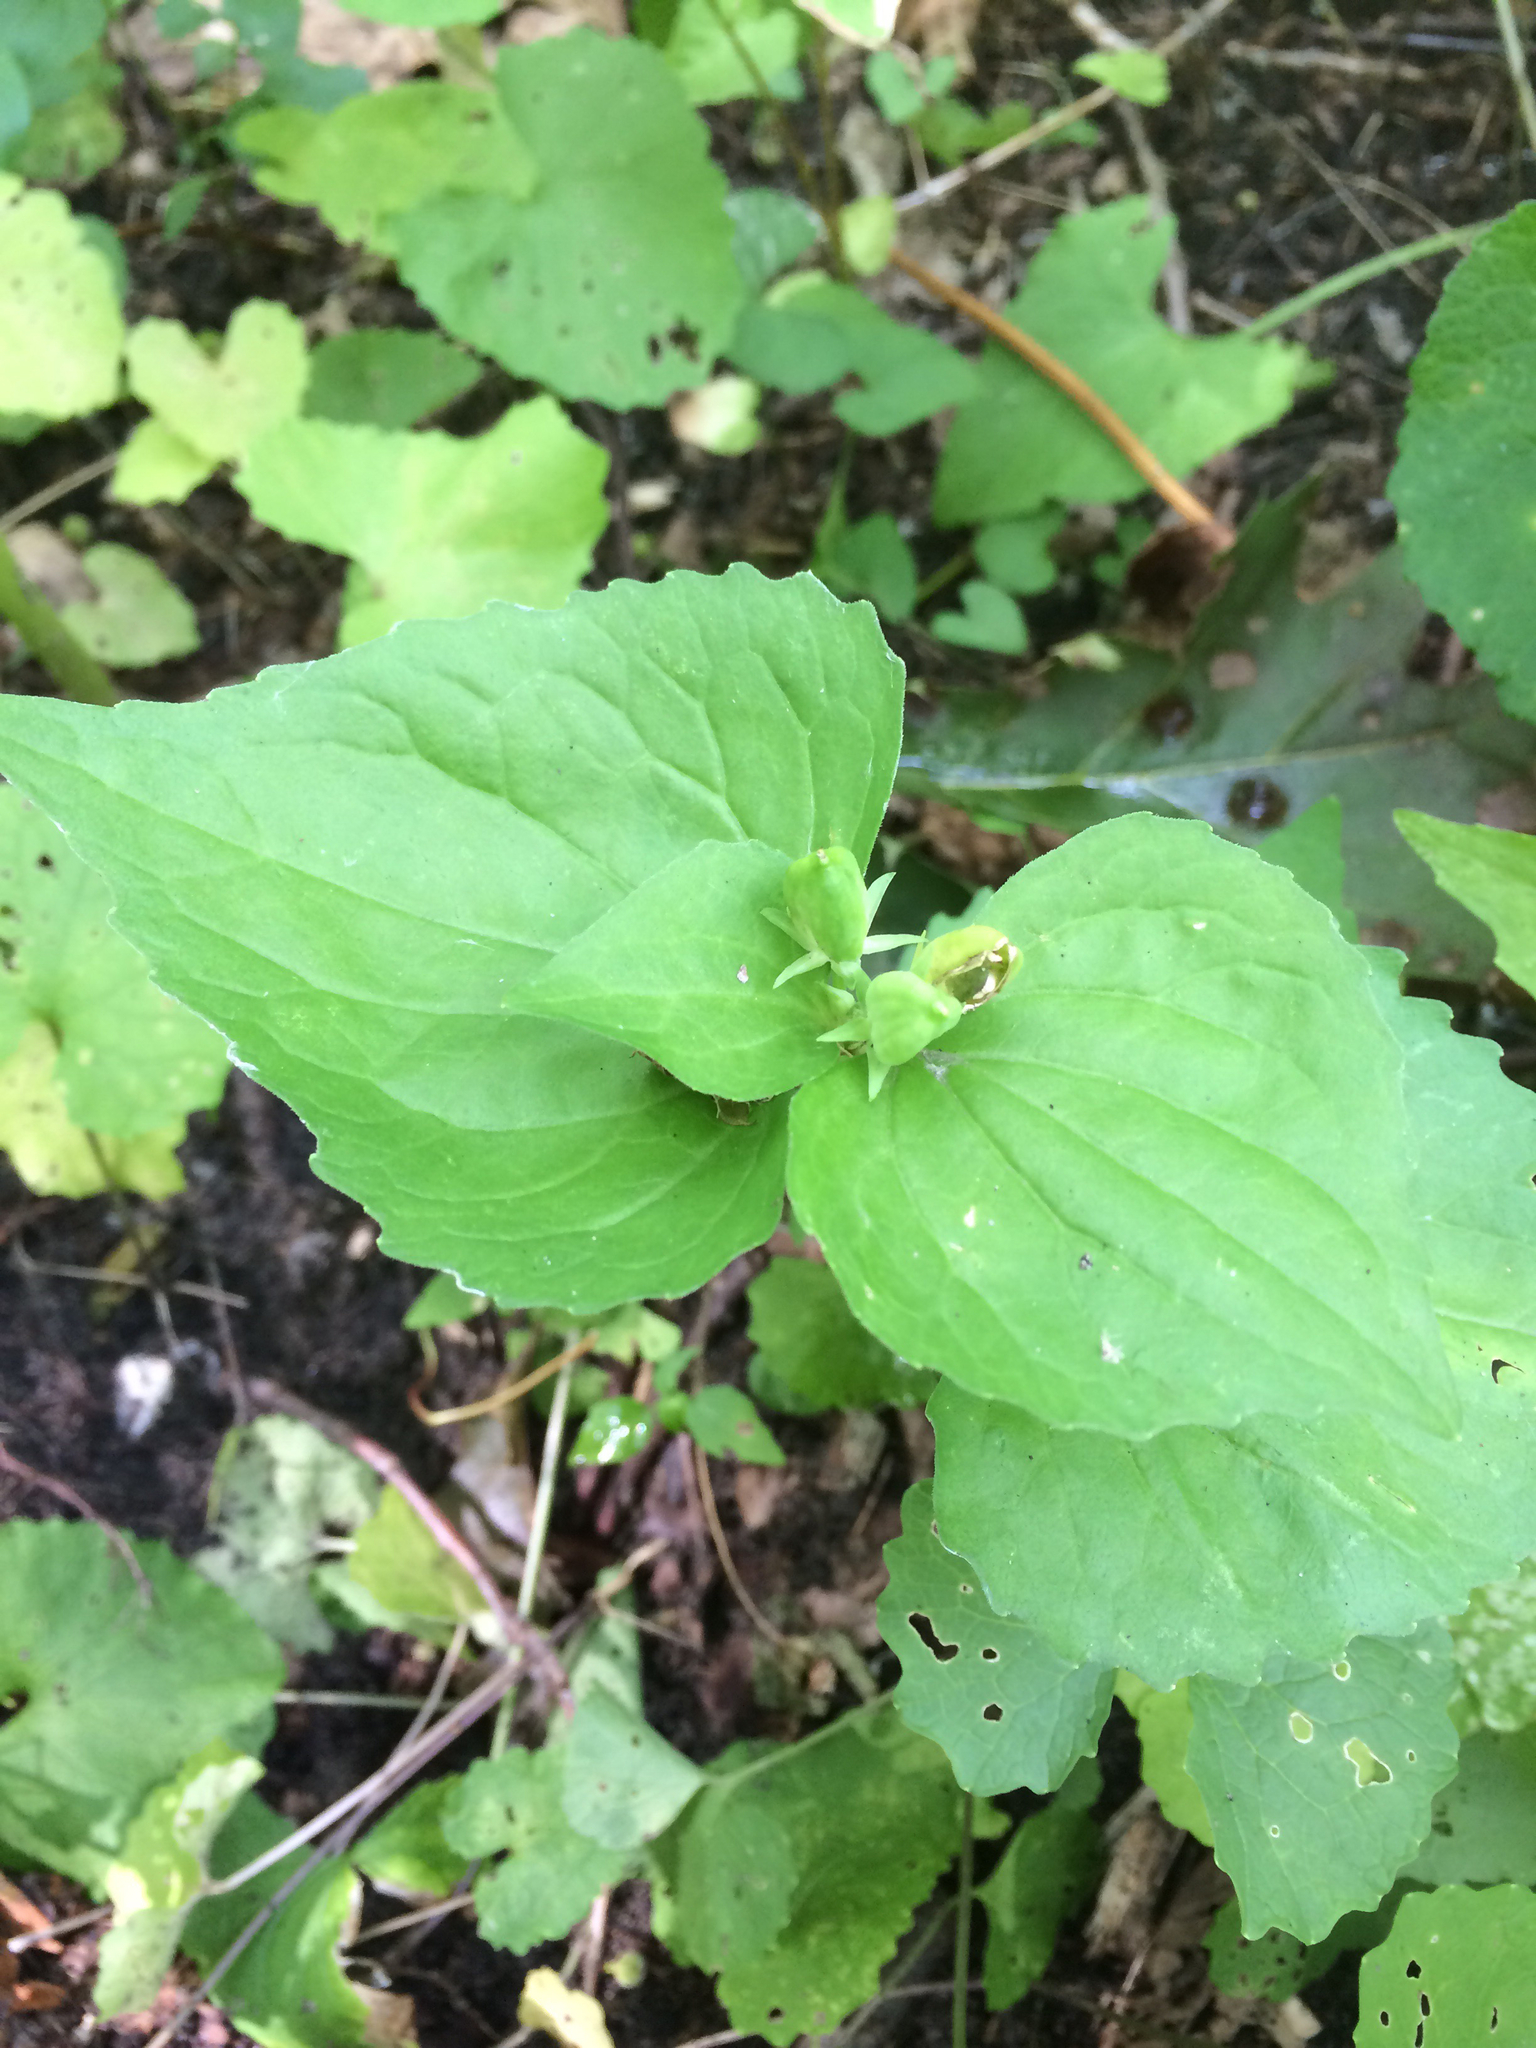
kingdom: Plantae
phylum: Tracheophyta
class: Magnoliopsida
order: Malpighiales
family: Violaceae
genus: Viola
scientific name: Viola eriocarpa
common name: Smooth yellow violet
